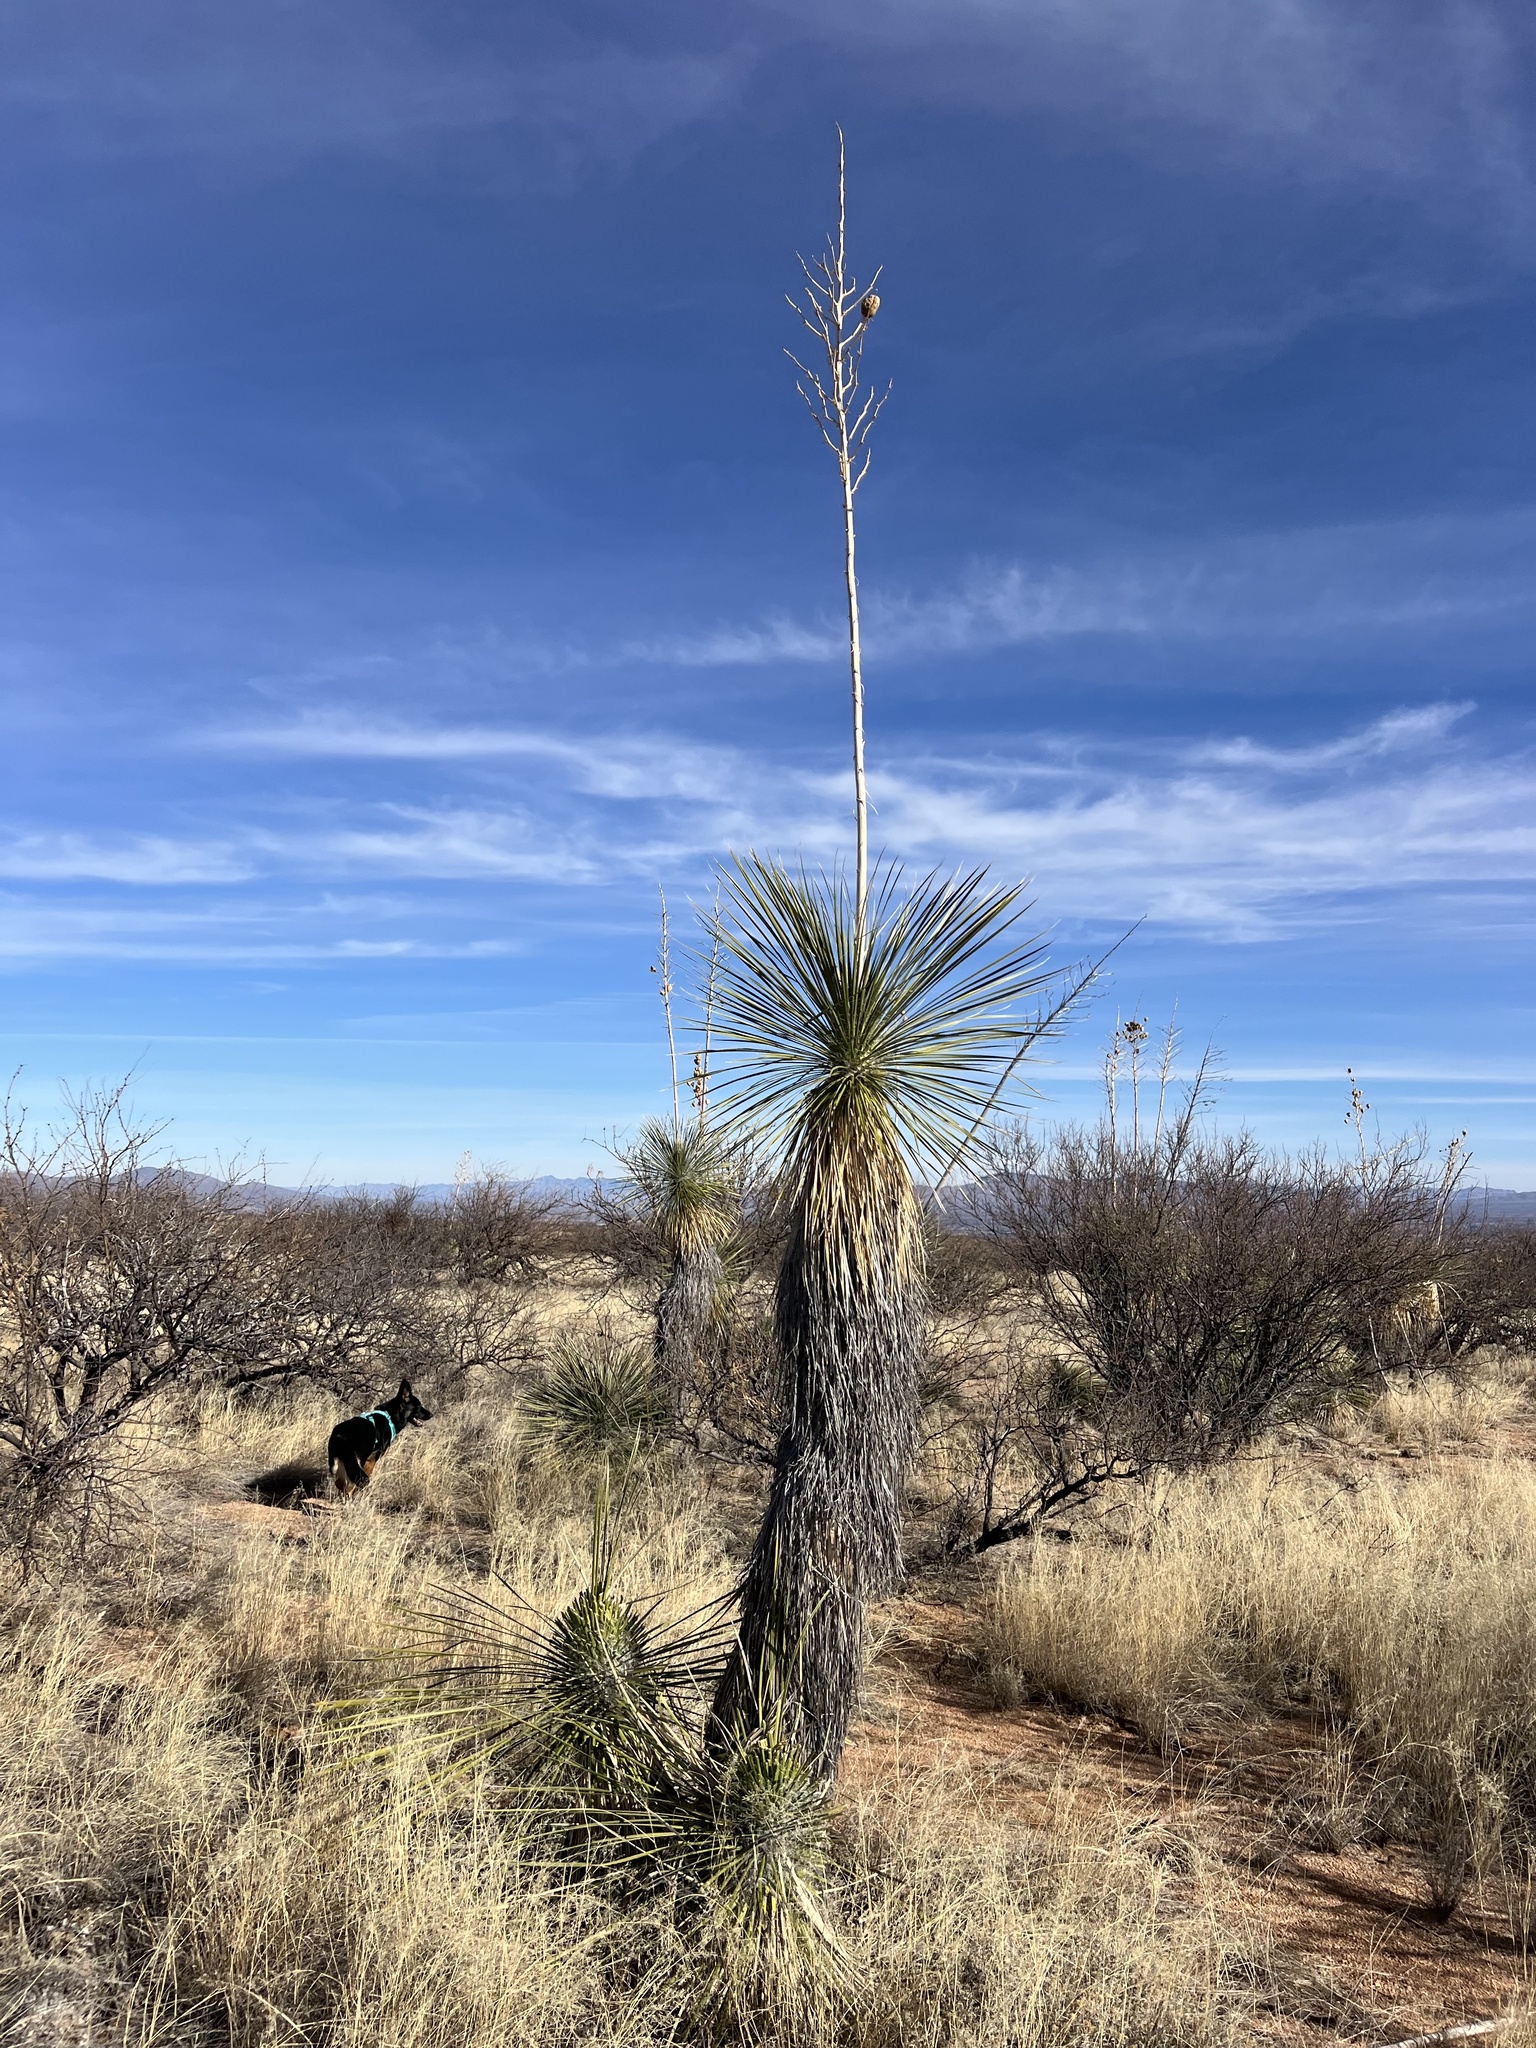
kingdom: Plantae
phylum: Tracheophyta
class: Liliopsida
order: Asparagales
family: Asparagaceae
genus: Yucca
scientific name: Yucca elata
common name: Palmella
